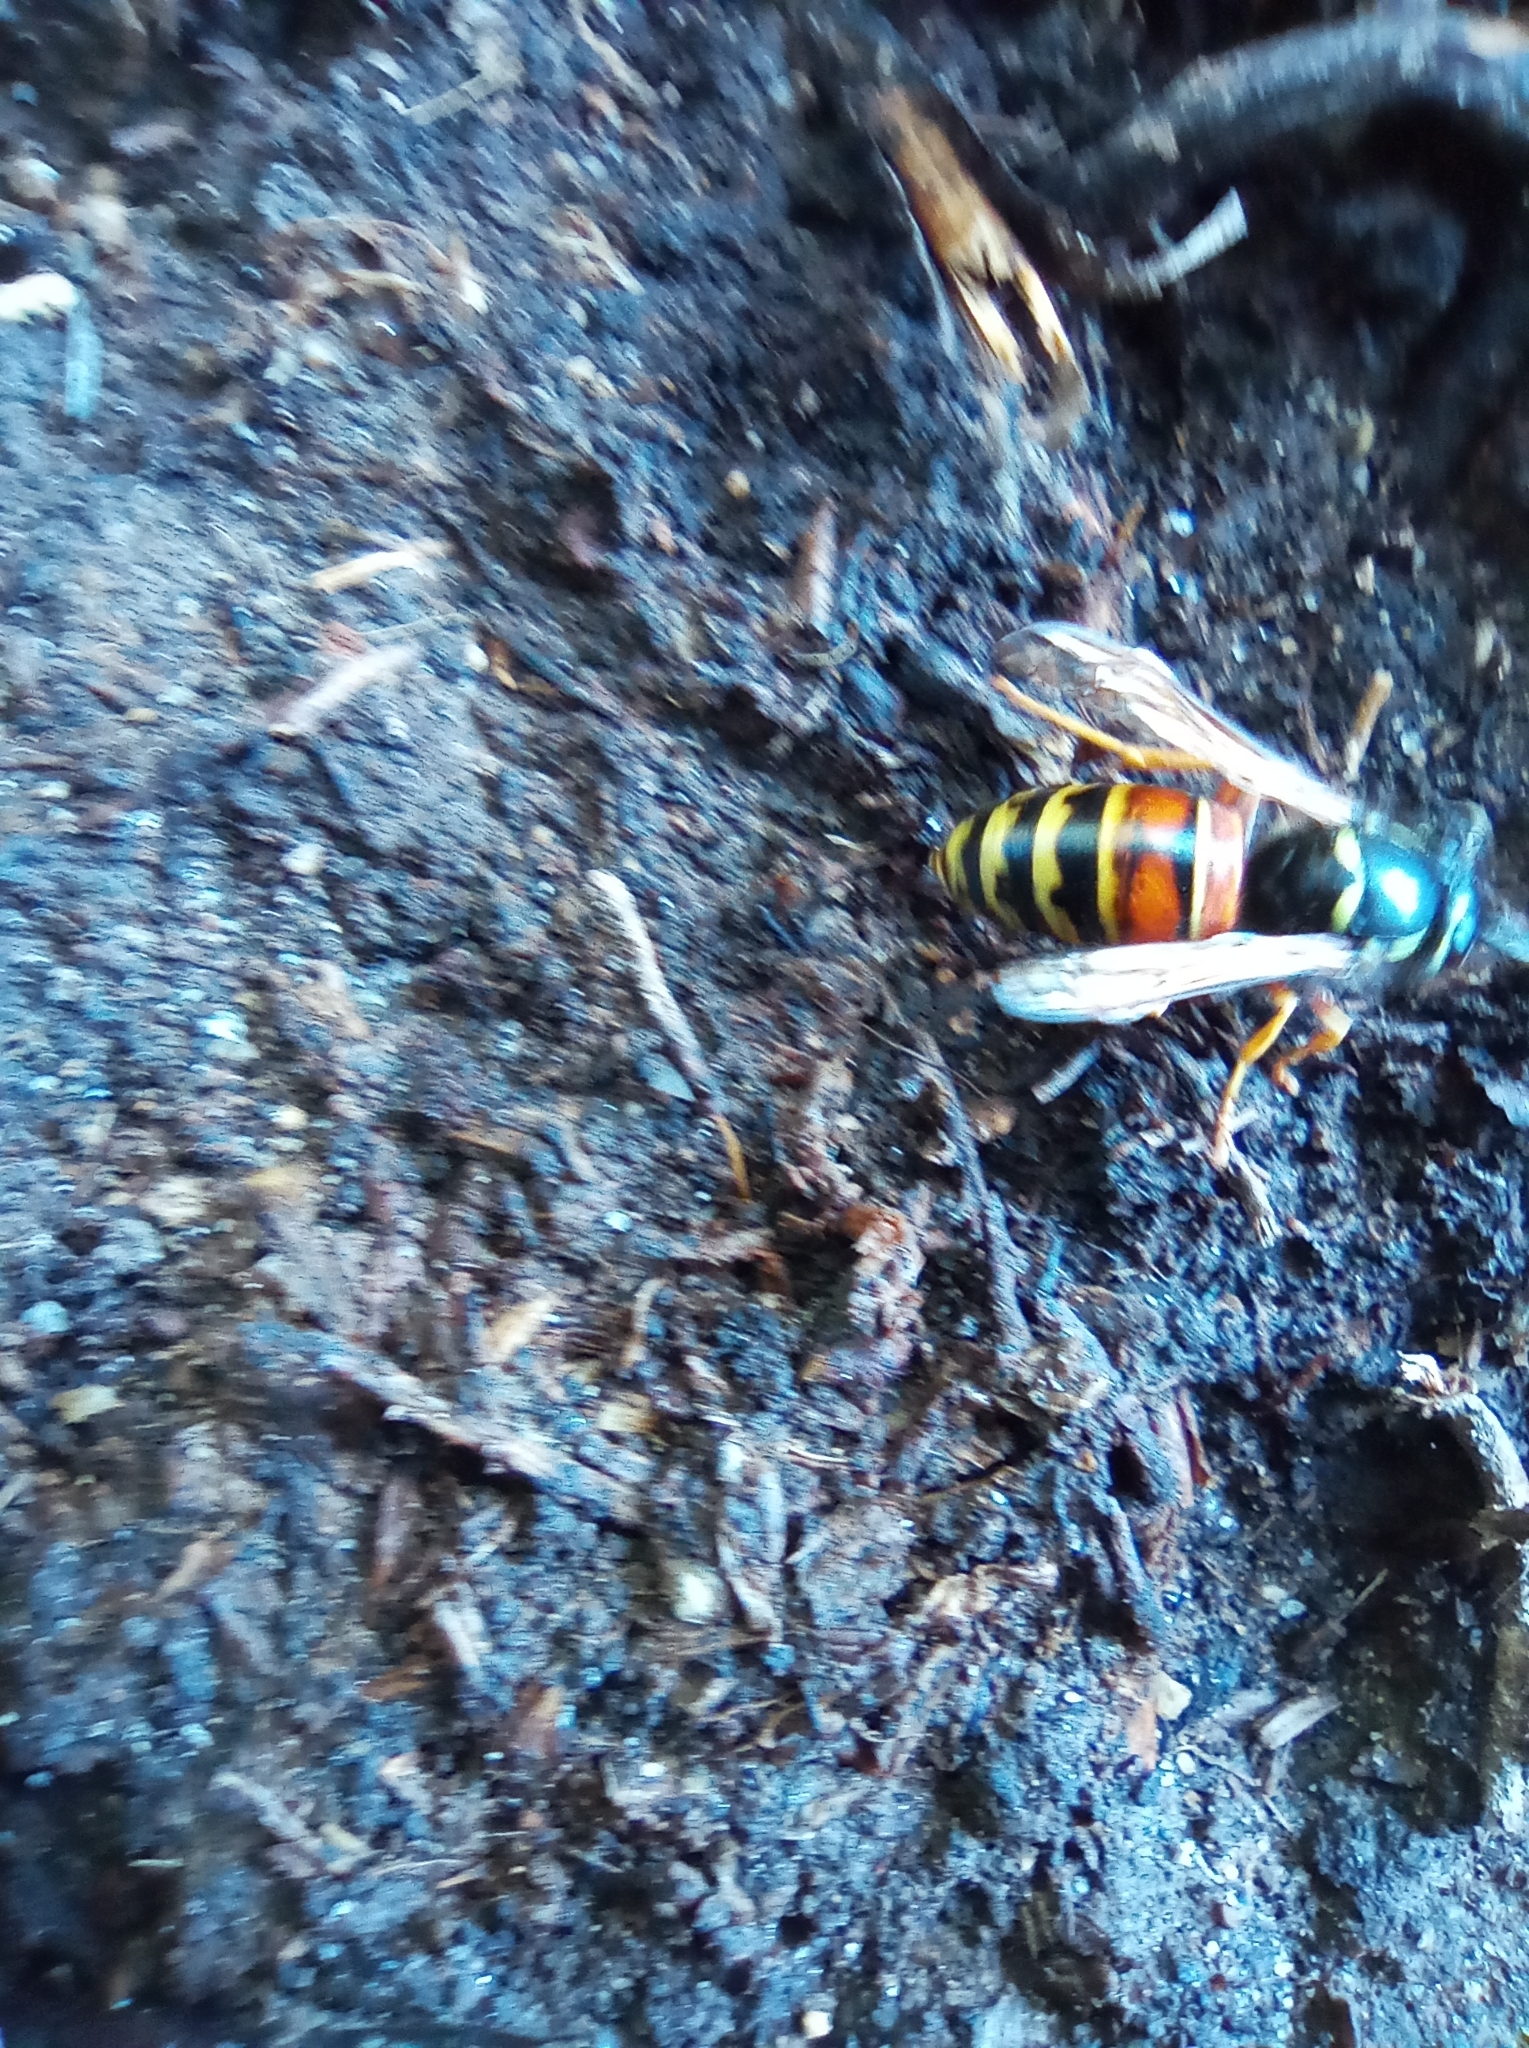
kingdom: Animalia
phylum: Arthropoda
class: Insecta
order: Hymenoptera
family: Vespidae
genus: Vespula
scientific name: Vespula rufa
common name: Red wasp
